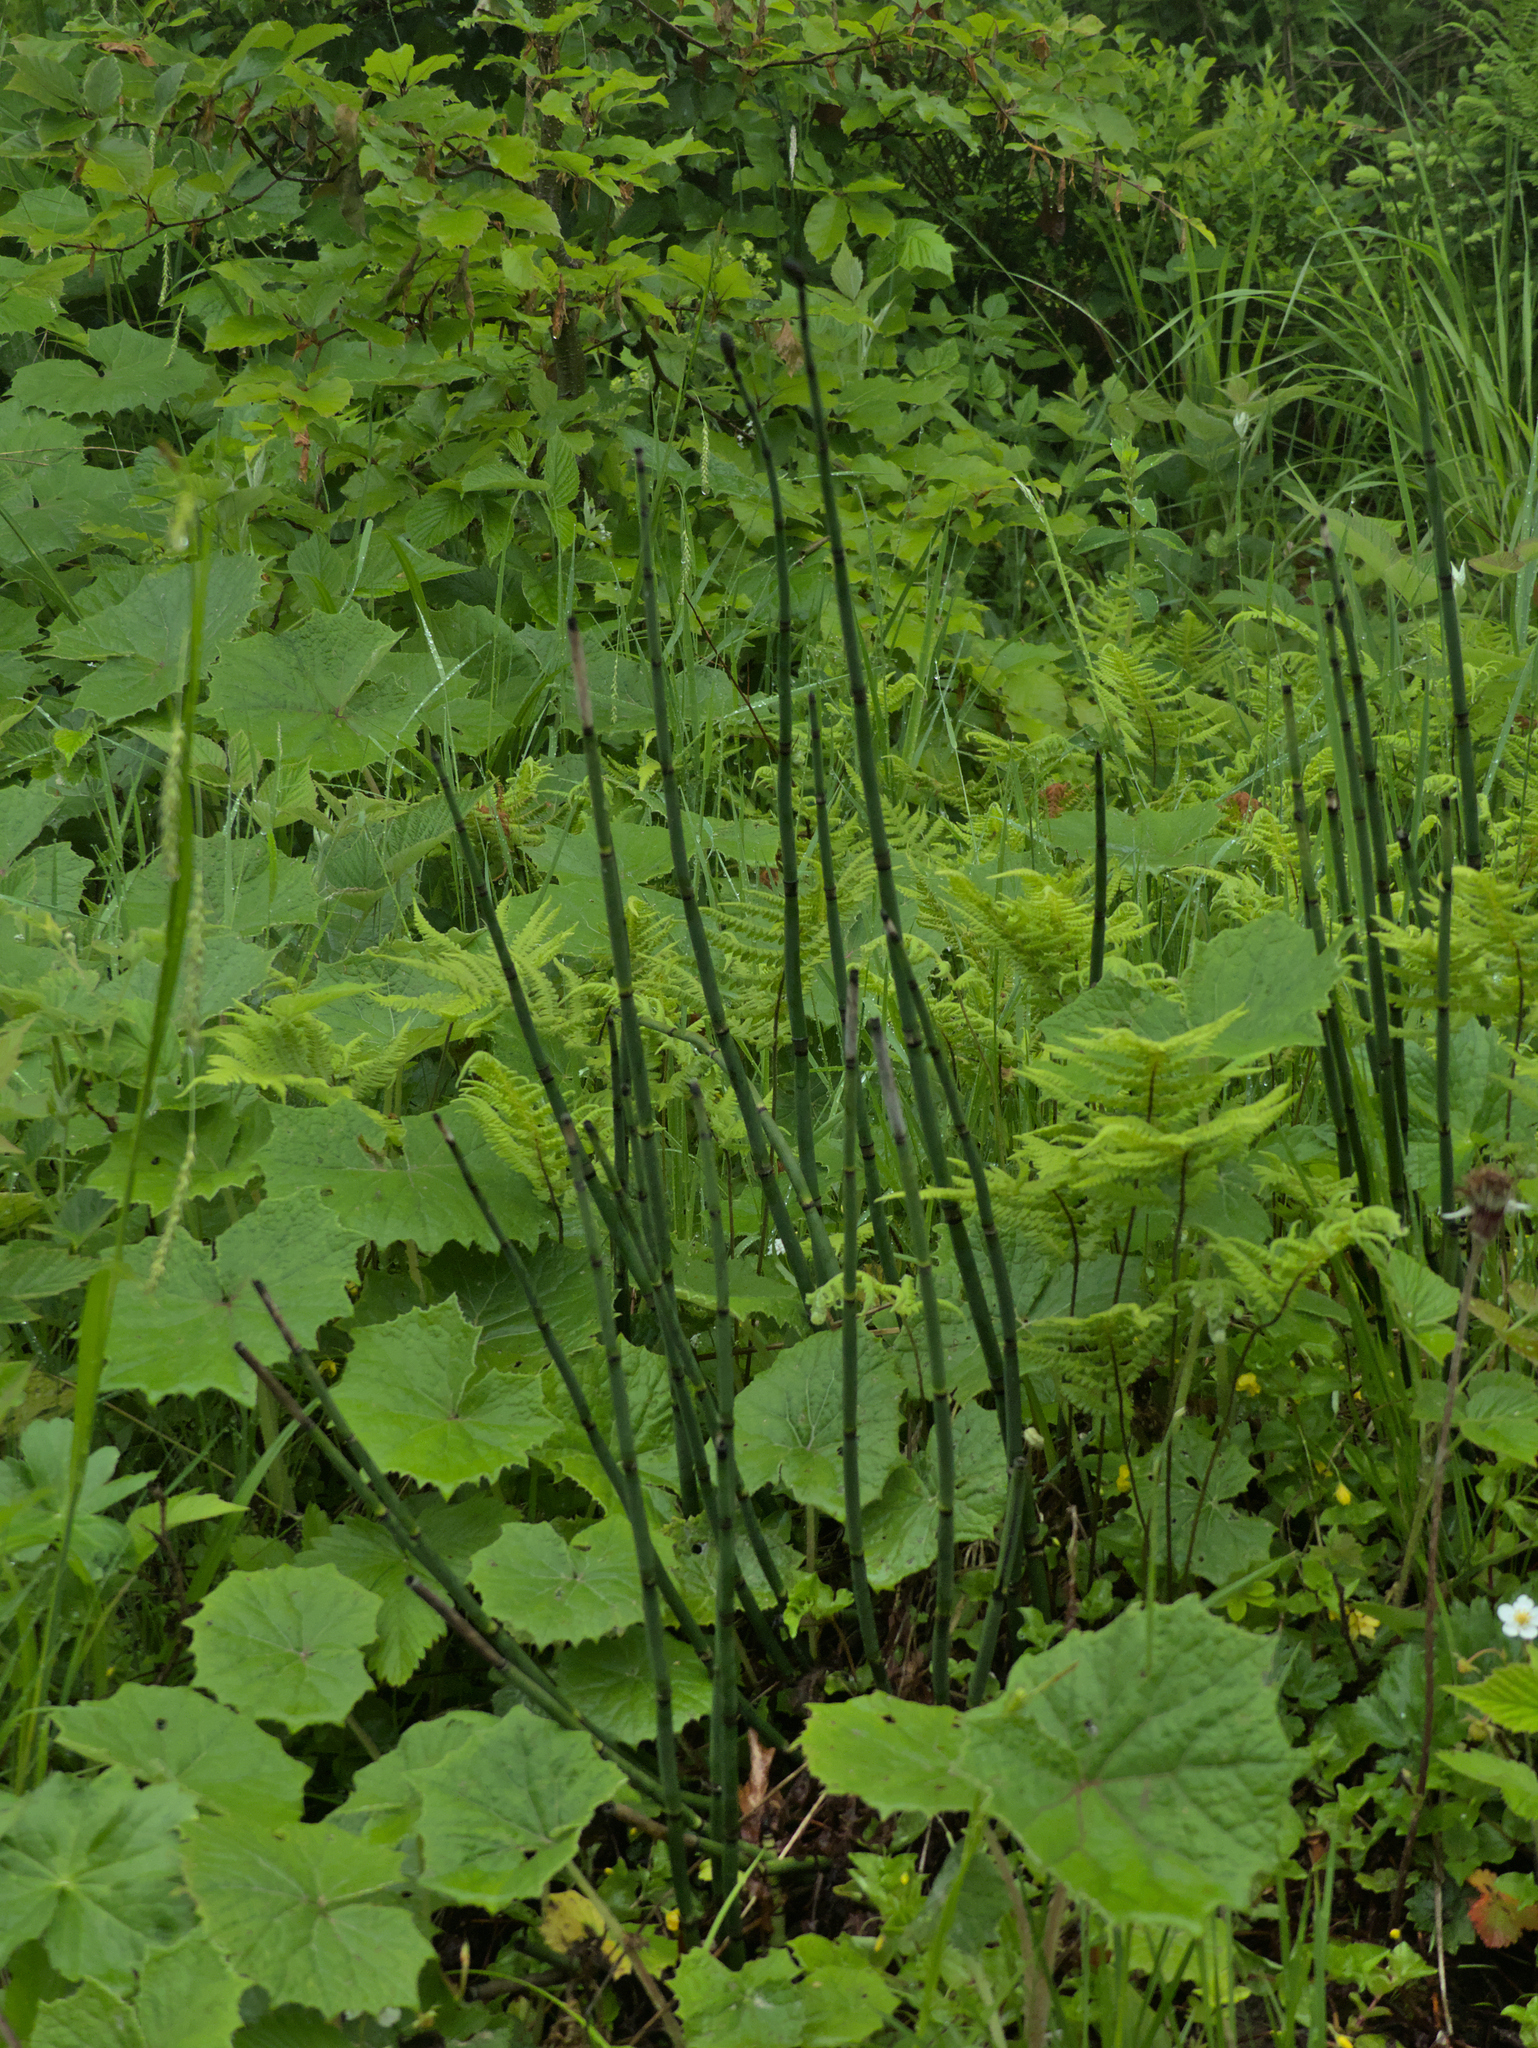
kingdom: Plantae
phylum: Tracheophyta
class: Polypodiopsida
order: Equisetales
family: Equisetaceae
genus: Equisetum
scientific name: Equisetum hyemale
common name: Rough horsetail
